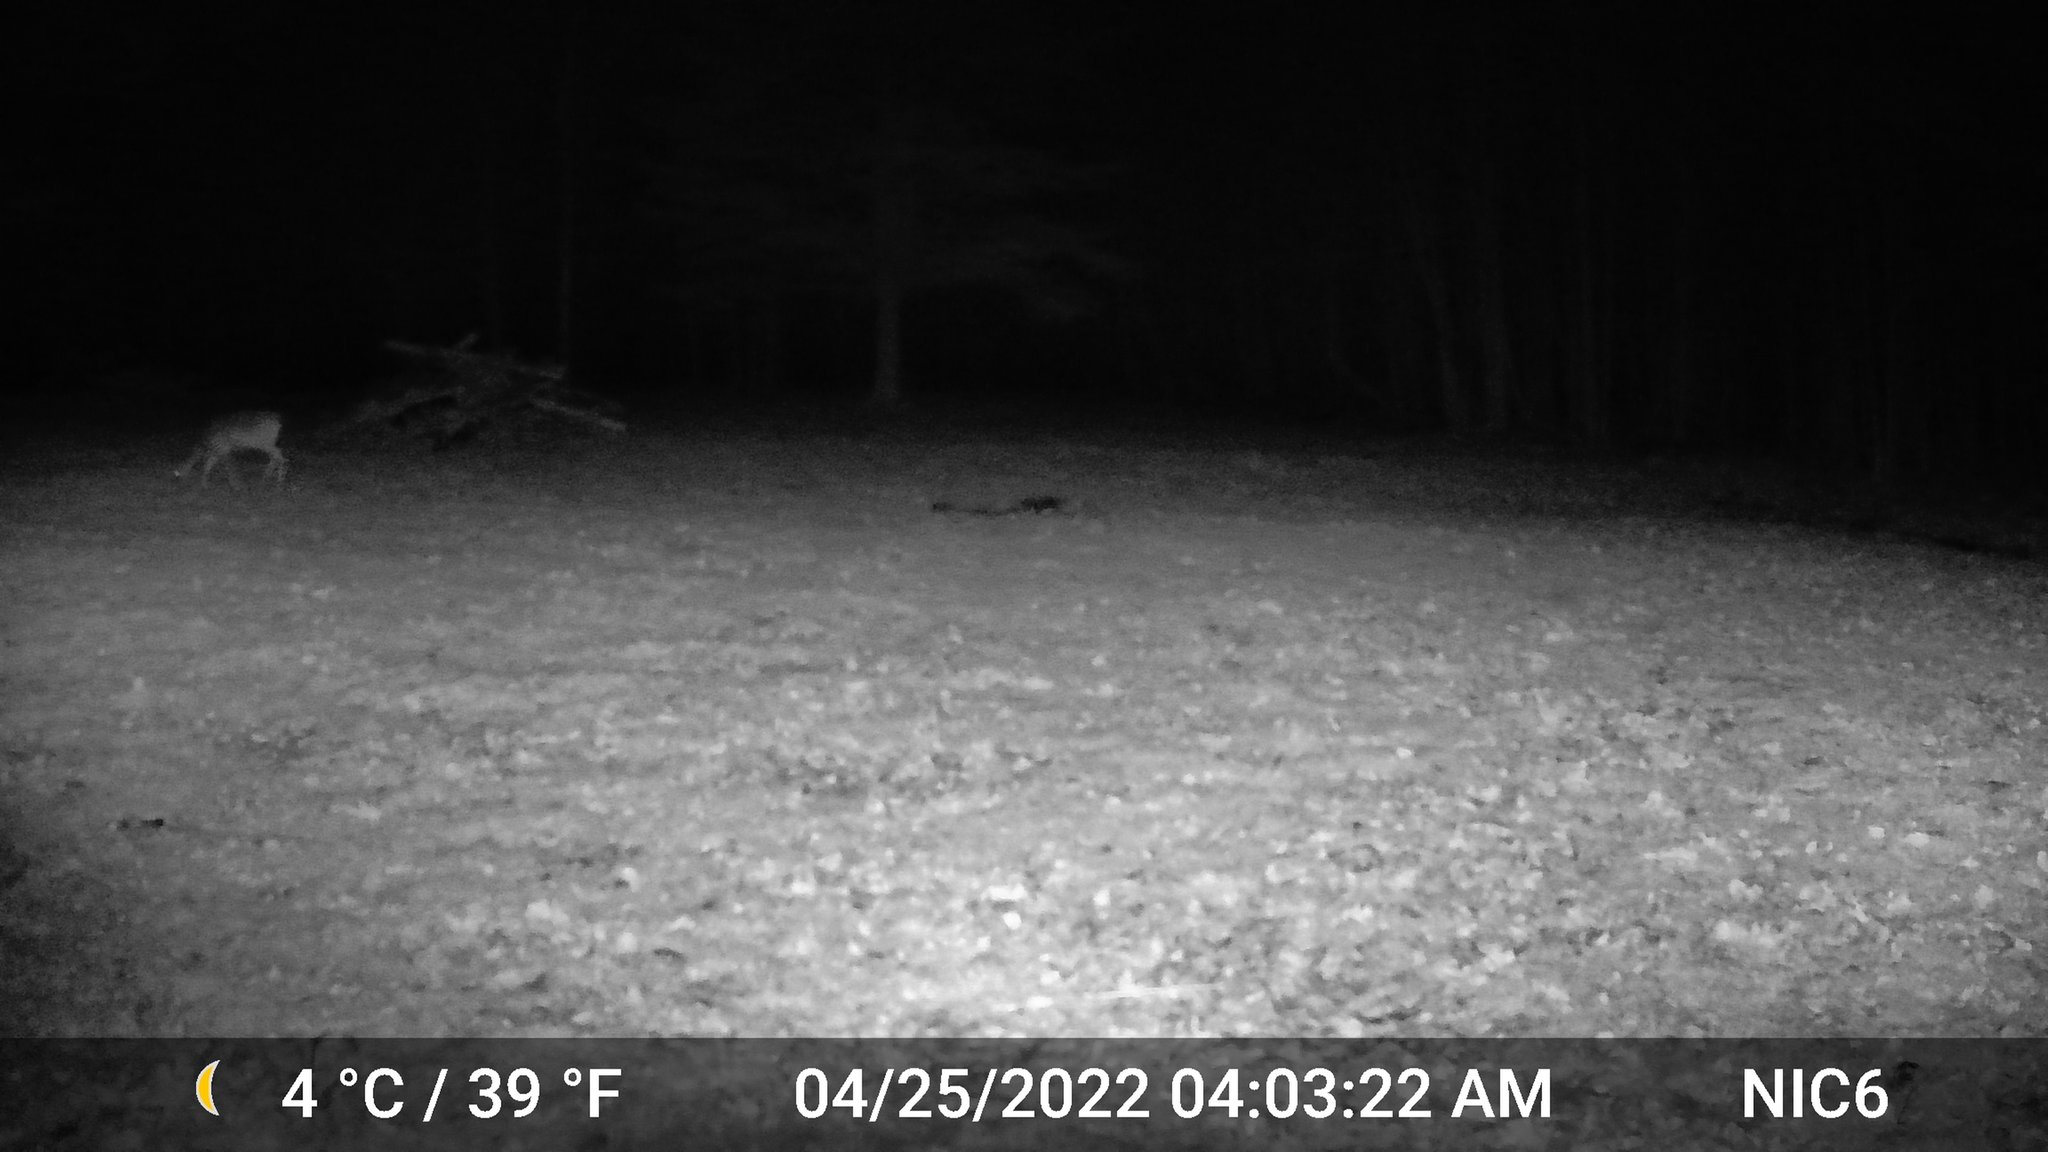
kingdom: Animalia
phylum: Chordata
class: Mammalia
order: Artiodactyla
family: Cervidae
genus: Odocoileus
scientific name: Odocoileus virginianus
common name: White-tailed deer
